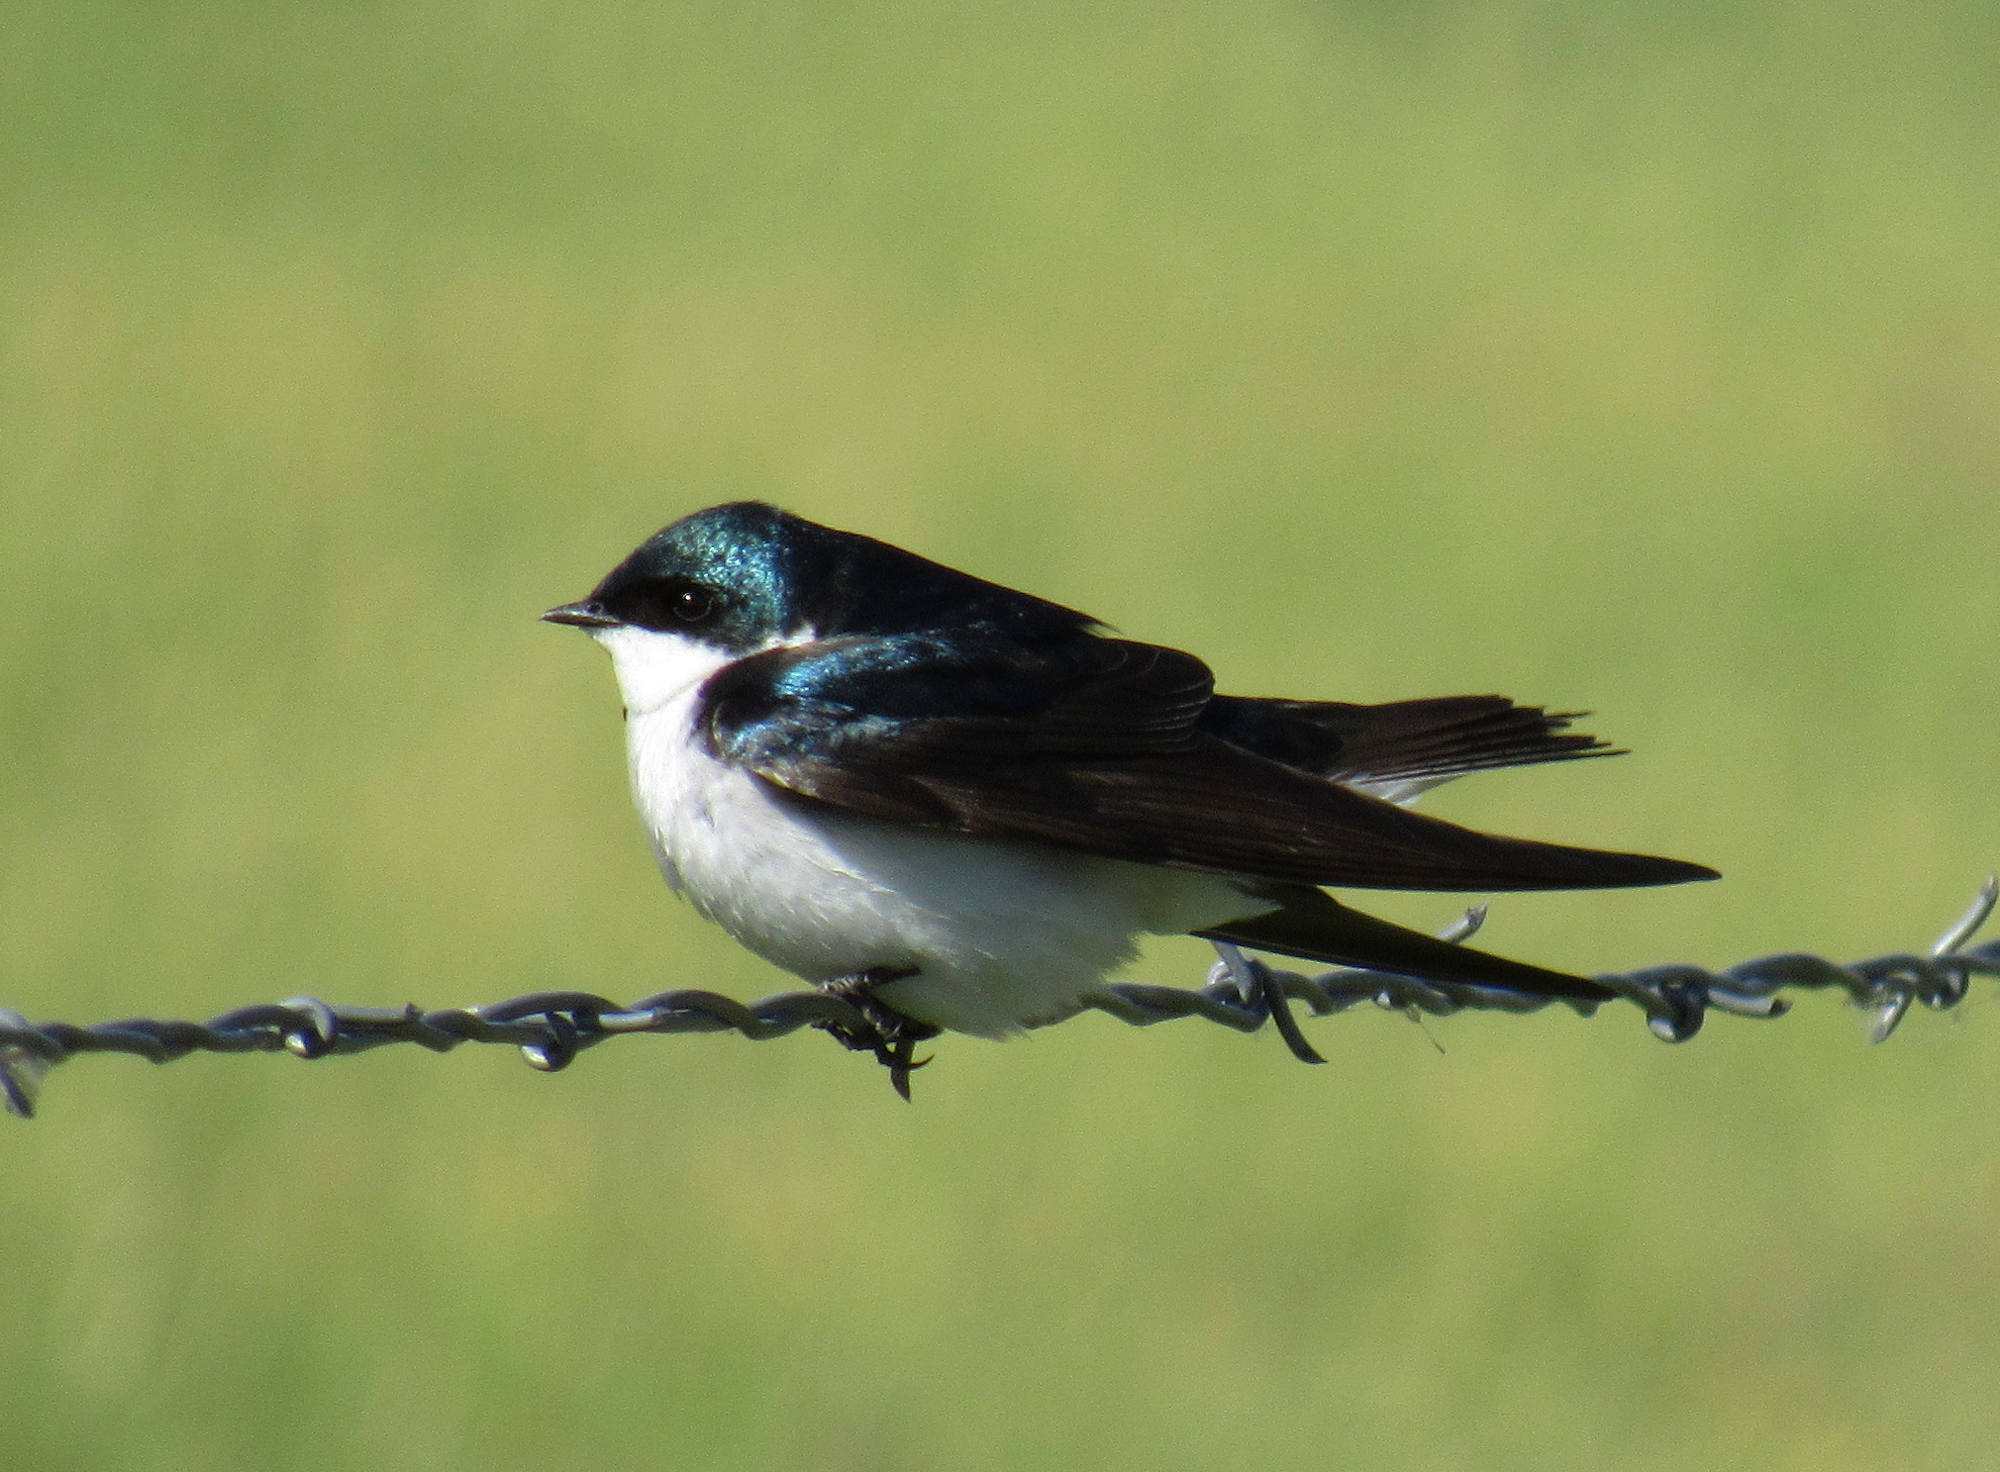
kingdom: Animalia
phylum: Chordata
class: Aves
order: Passeriformes
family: Hirundinidae
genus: Tachycineta
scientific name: Tachycineta bicolor
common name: Tree swallow
